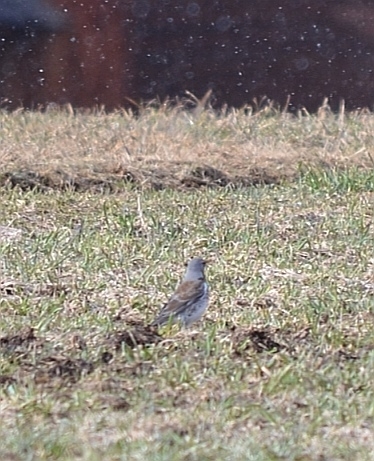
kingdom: Animalia
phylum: Chordata
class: Aves
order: Passeriformes
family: Turdidae
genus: Turdus
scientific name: Turdus pilaris
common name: Fieldfare
